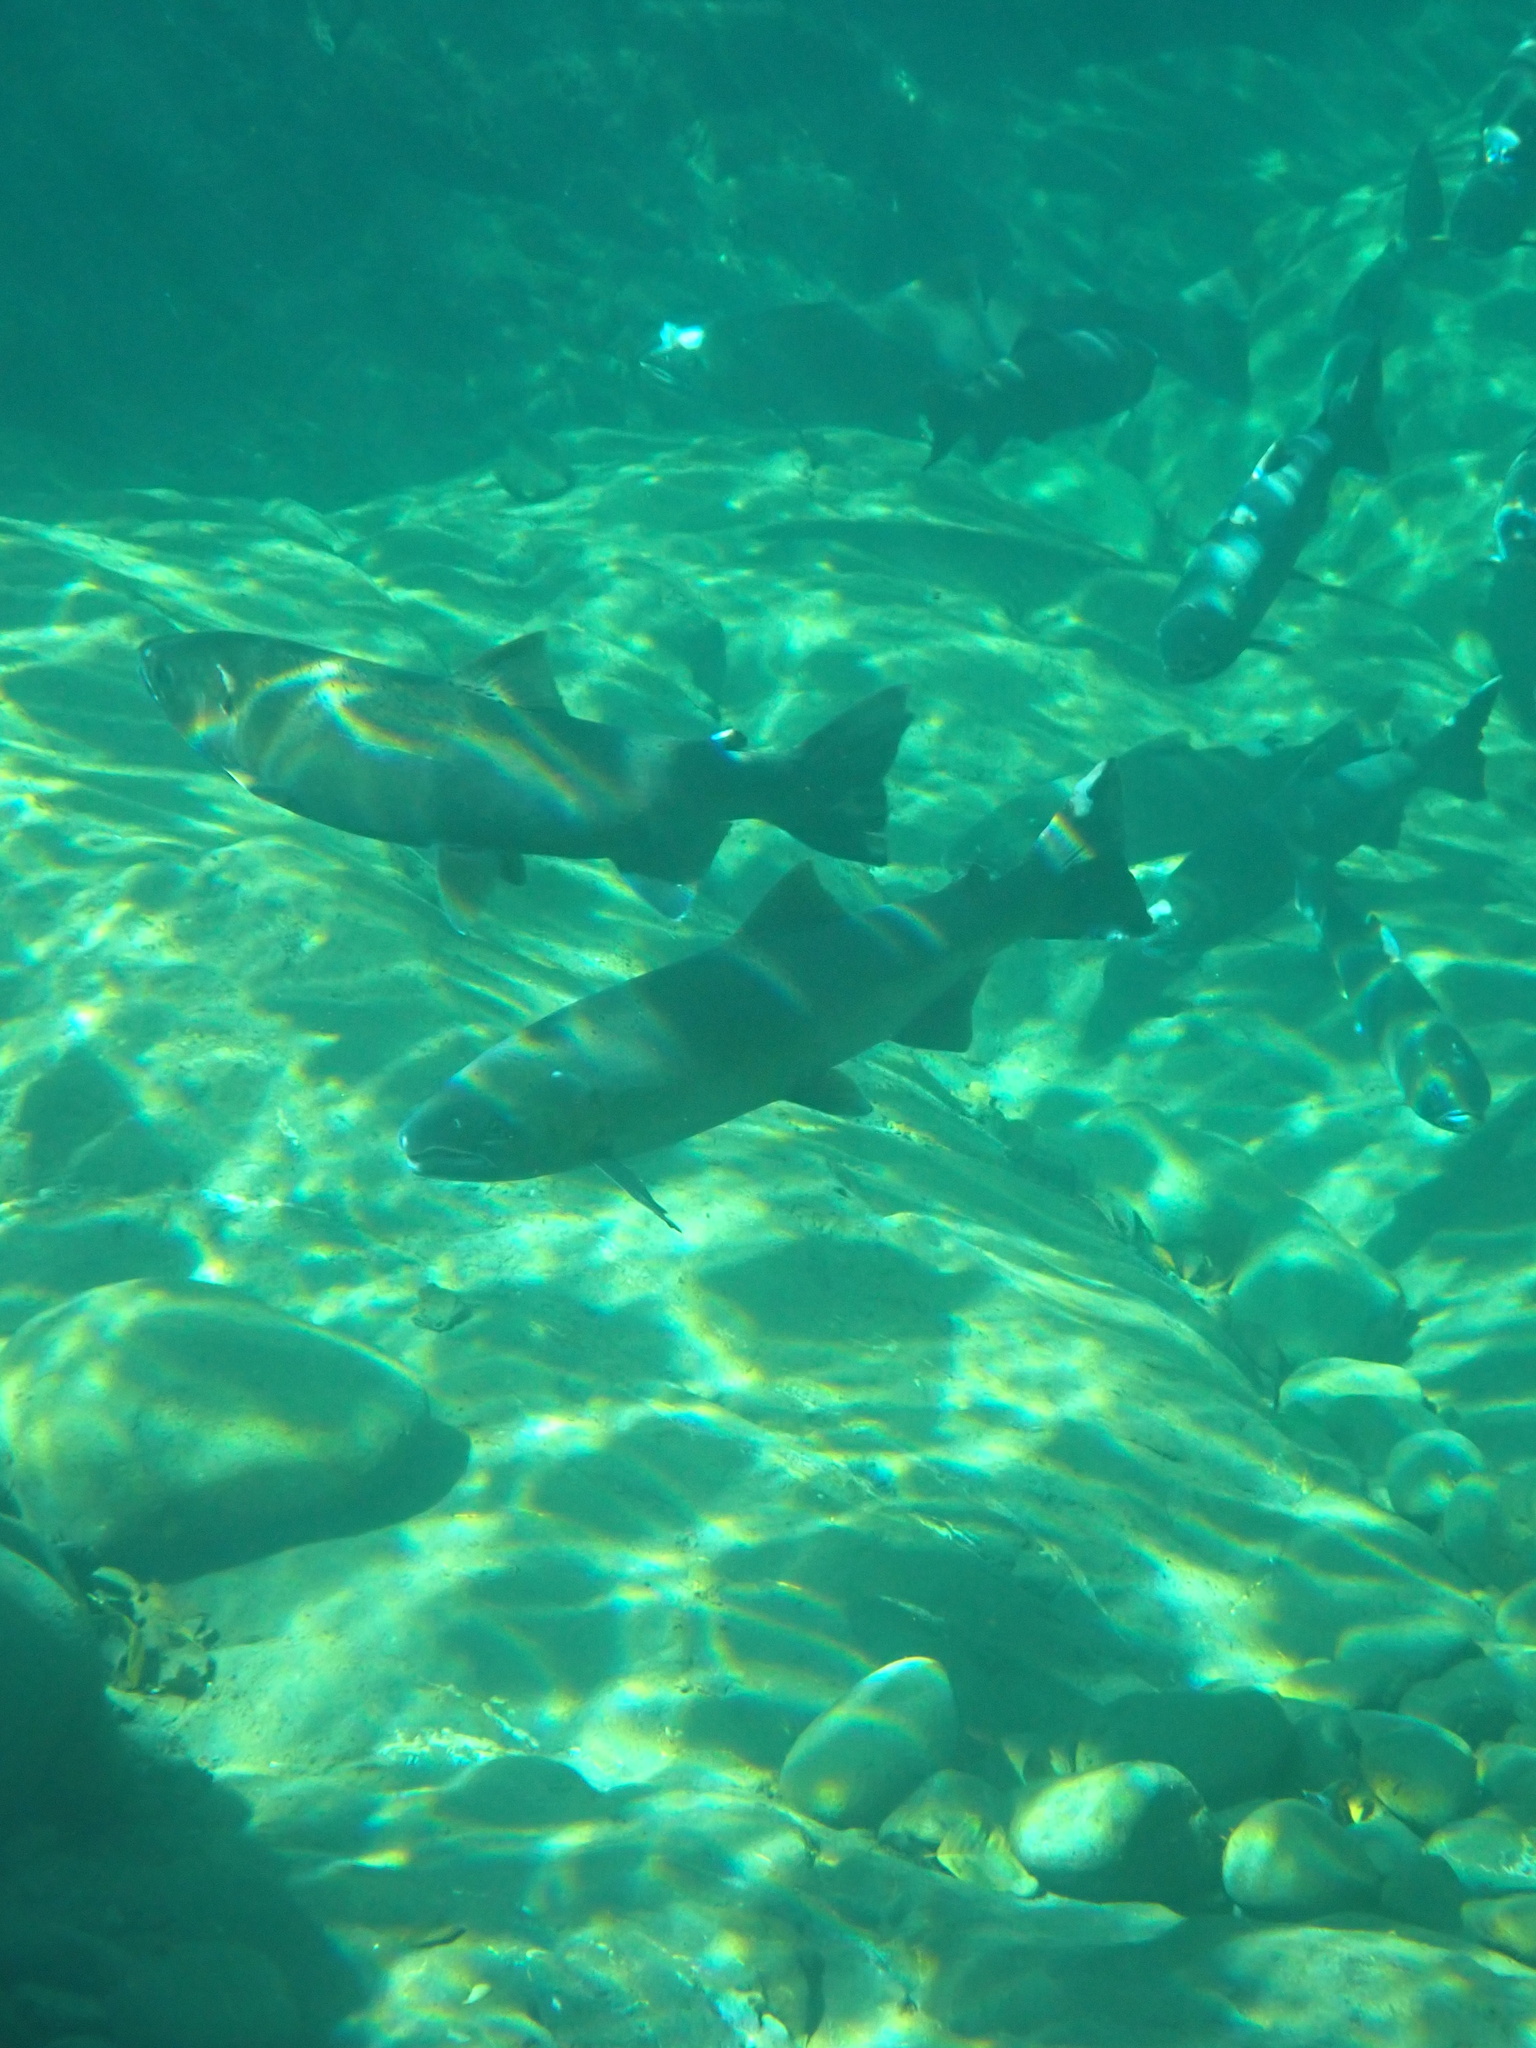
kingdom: Animalia
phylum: Chordata
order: Salmoniformes
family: Salmonidae
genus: Oncorhynchus
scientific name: Oncorhynchus kisutch
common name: Coho salmon
